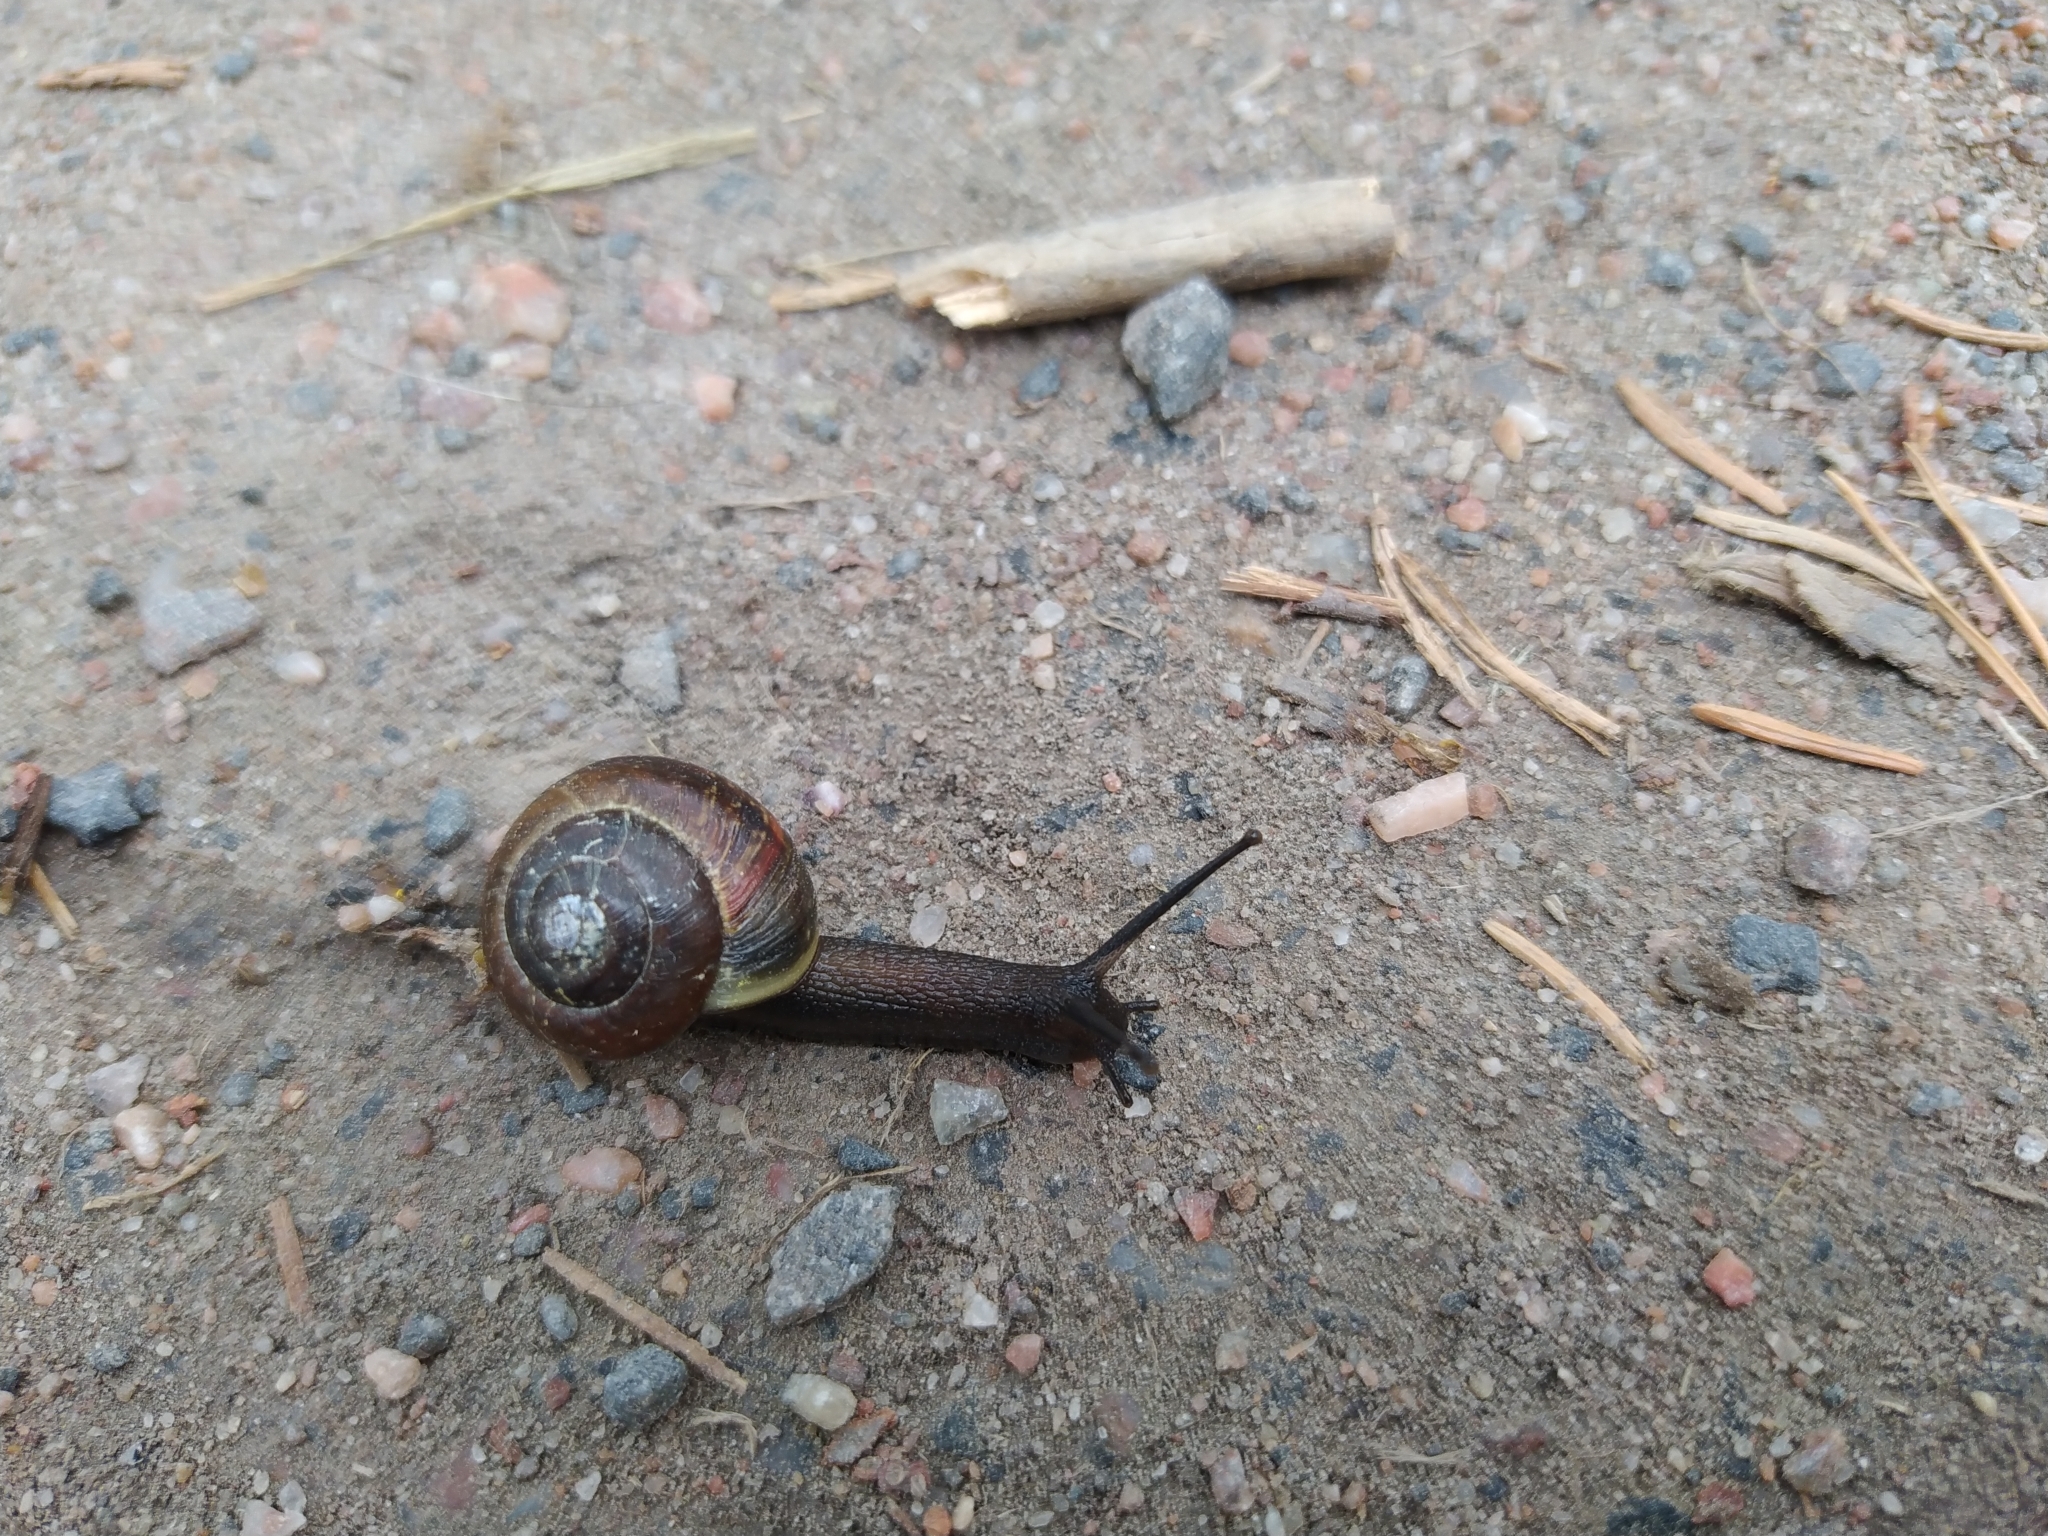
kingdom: Animalia
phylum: Mollusca
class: Gastropoda
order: Stylommatophora
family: Helicidae
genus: Arianta
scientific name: Arianta arbustorum
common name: Copse snail
